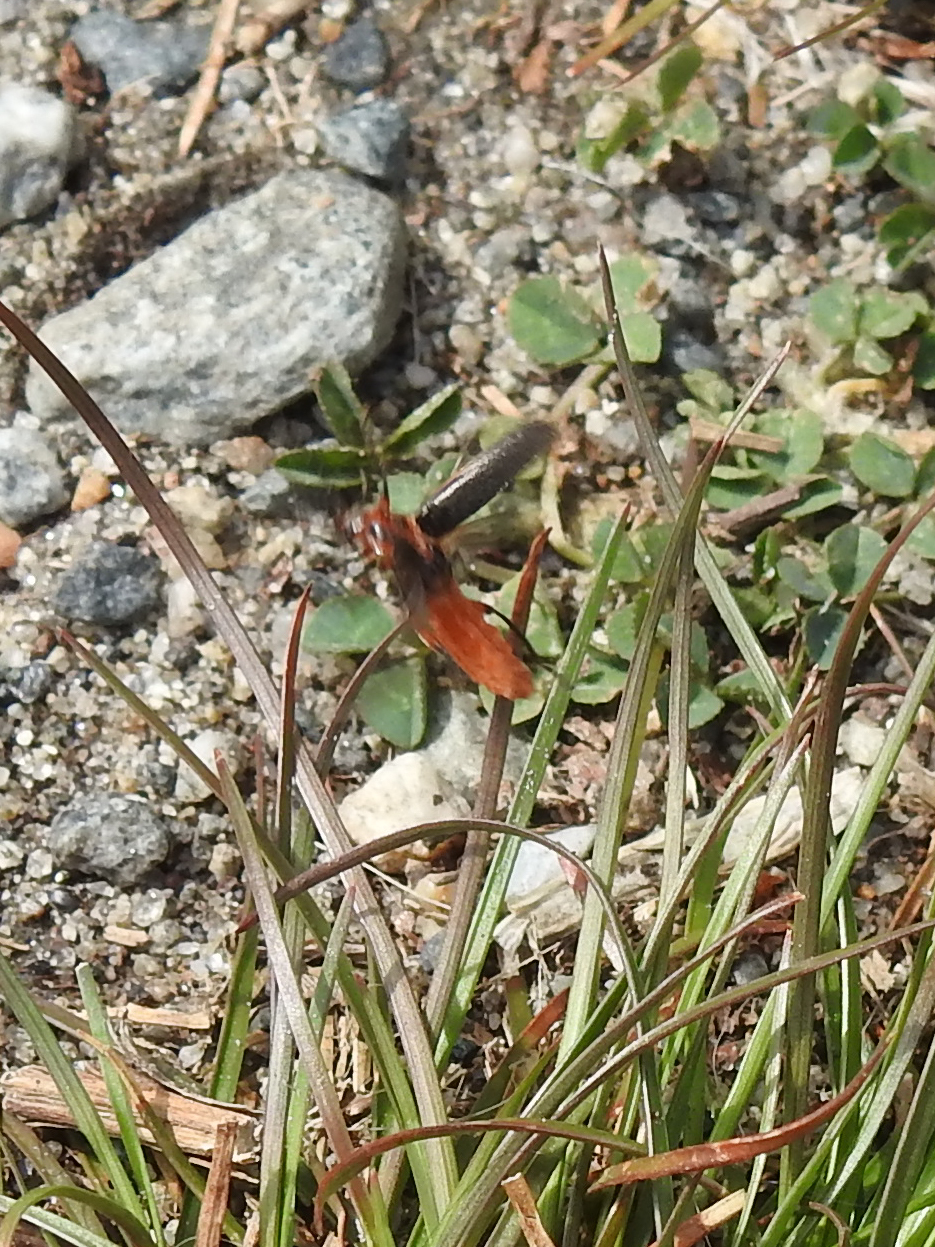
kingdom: Animalia
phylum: Arthropoda
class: Insecta
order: Coleoptera
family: Cantharidae
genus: Atalantycha
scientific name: Atalantycha bilineata
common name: Two-lined leatherwing
